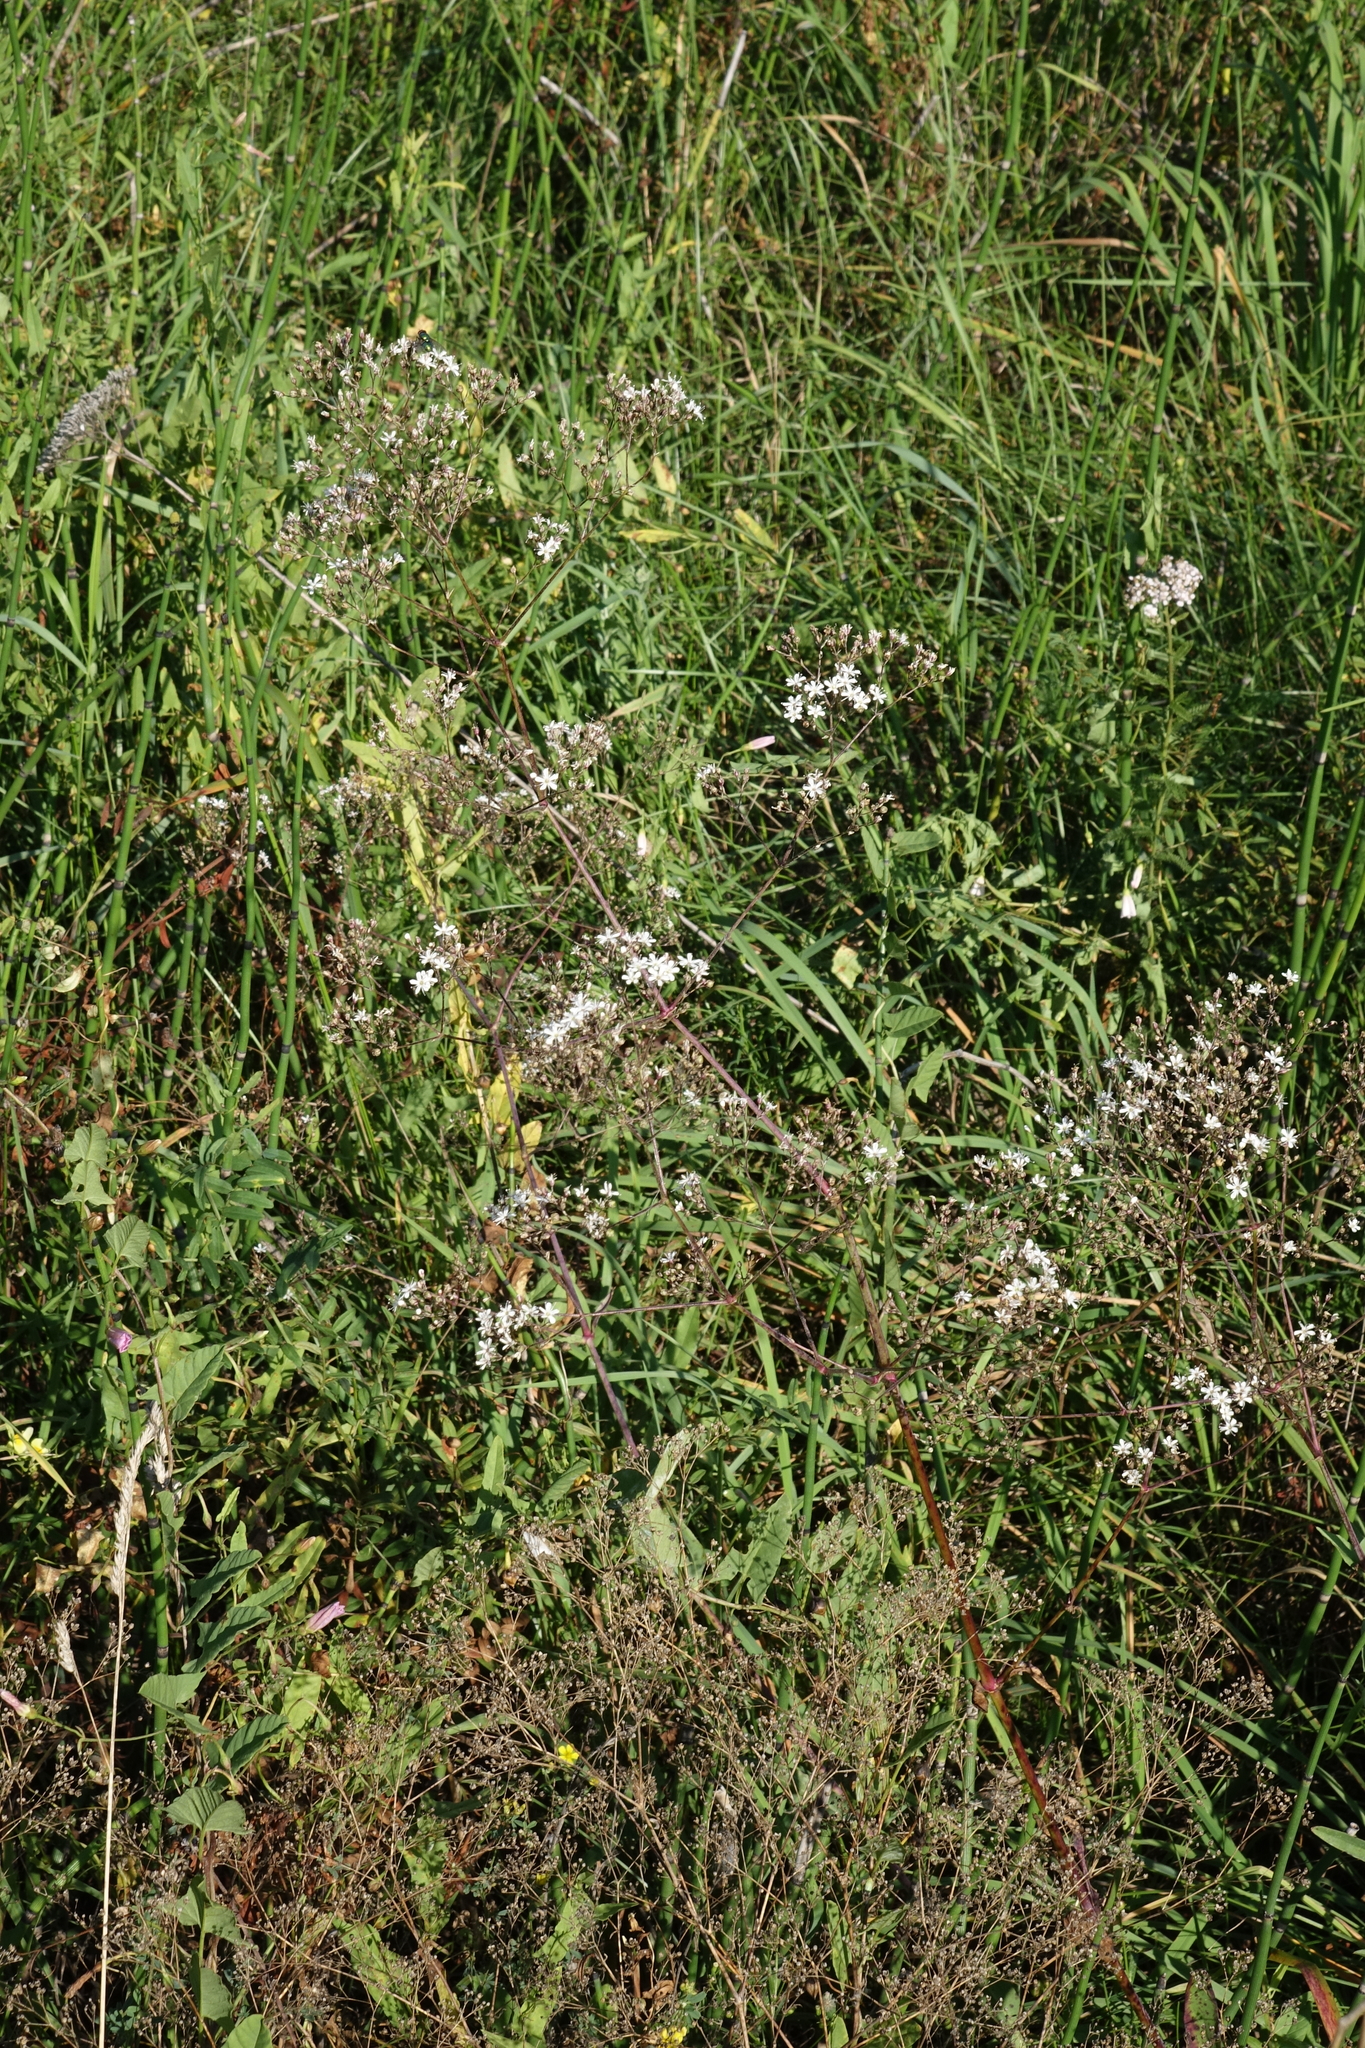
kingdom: Plantae
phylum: Tracheophyta
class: Magnoliopsida
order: Caryophyllales
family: Caryophyllaceae
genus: Gypsophila
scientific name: Gypsophila altissima
